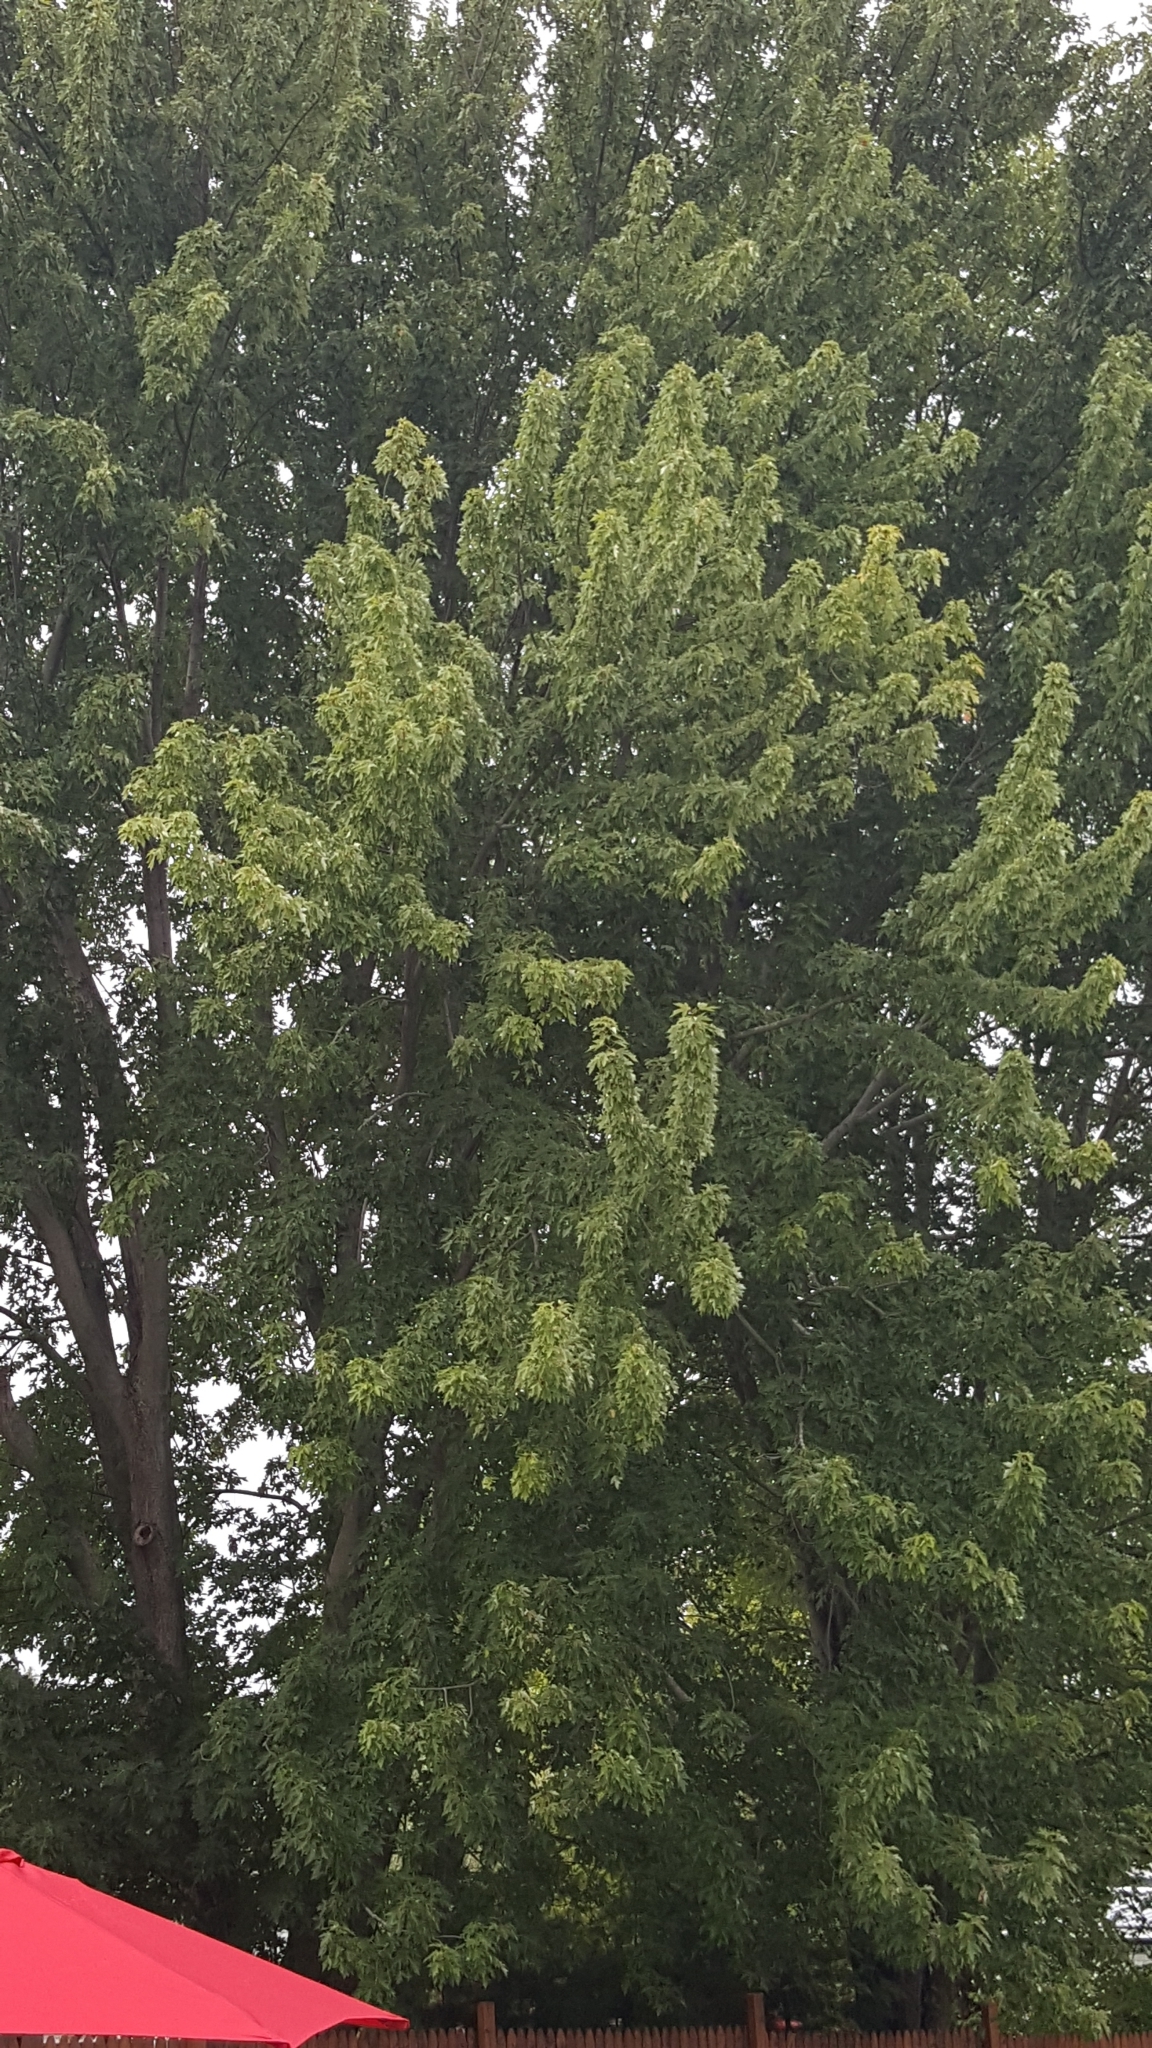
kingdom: Plantae
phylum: Tracheophyta
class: Magnoliopsida
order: Sapindales
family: Sapindaceae
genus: Acer
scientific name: Acer saccharinum
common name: Silver maple
